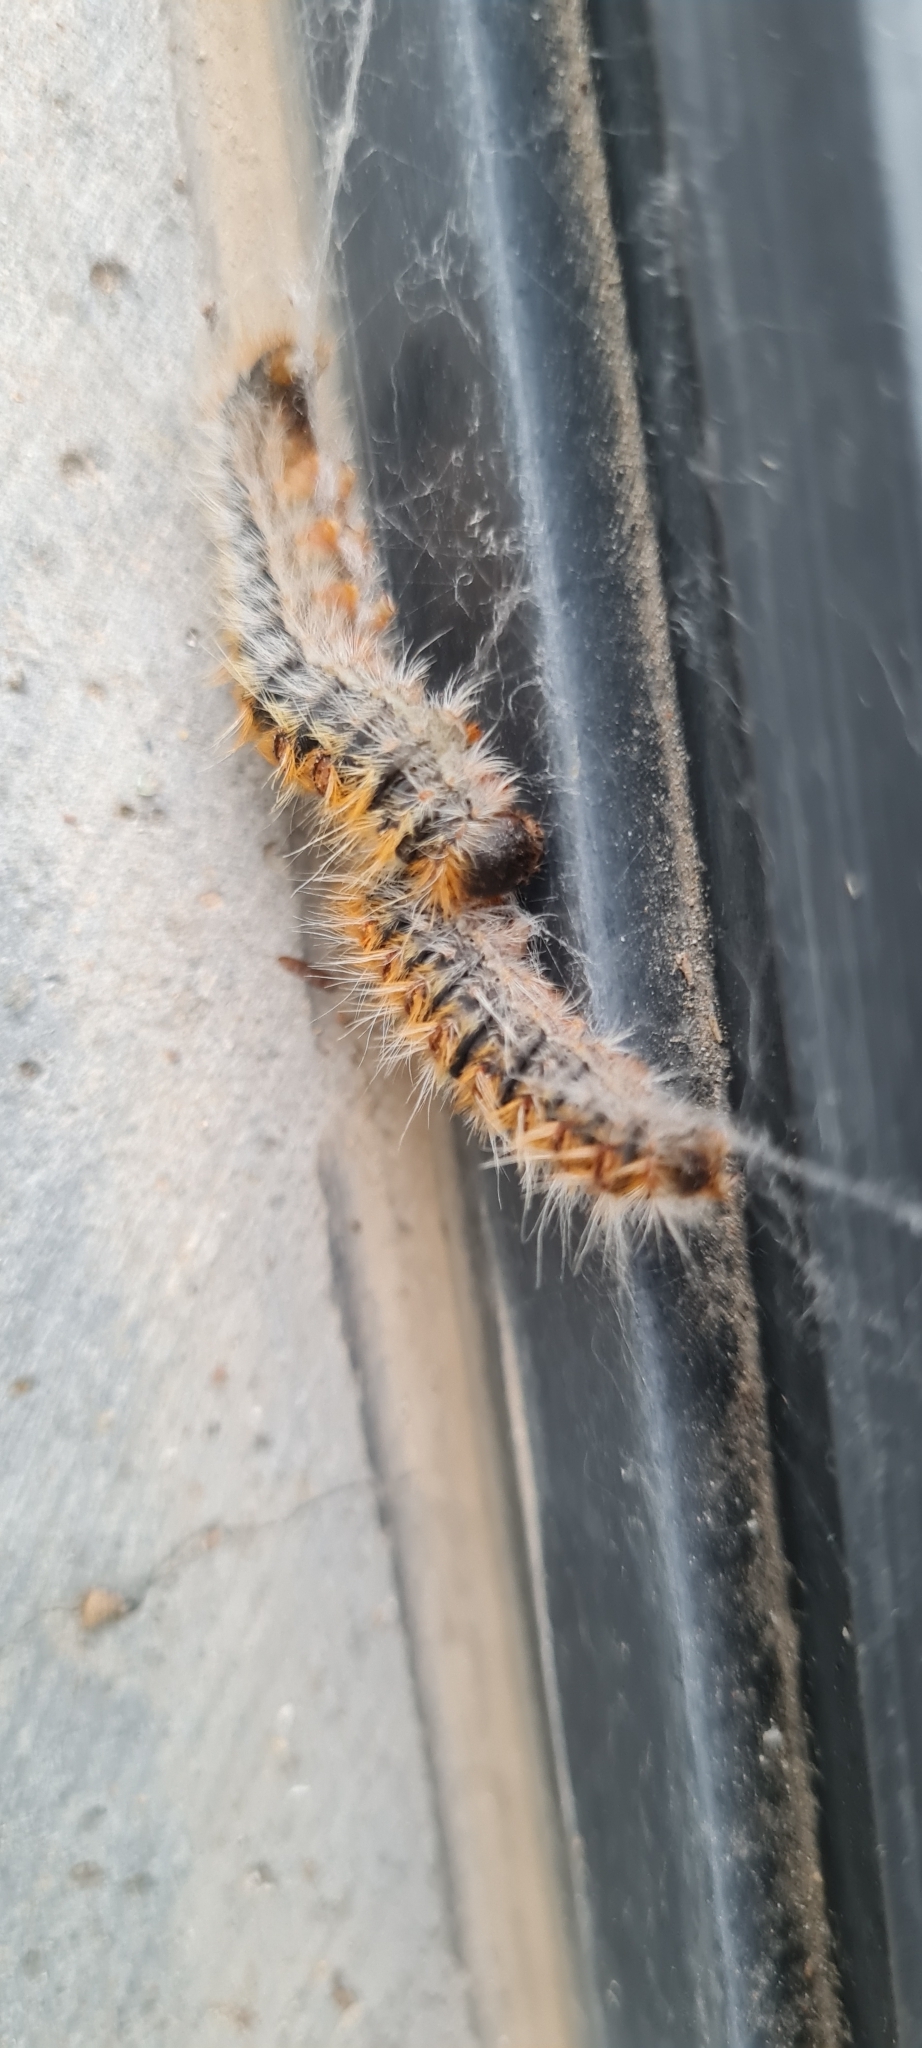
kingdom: Animalia
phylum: Arthropoda
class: Insecta
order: Lepidoptera
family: Notodontidae
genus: Thaumetopoea
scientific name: Thaumetopoea pityocampa
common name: Pine processionary
